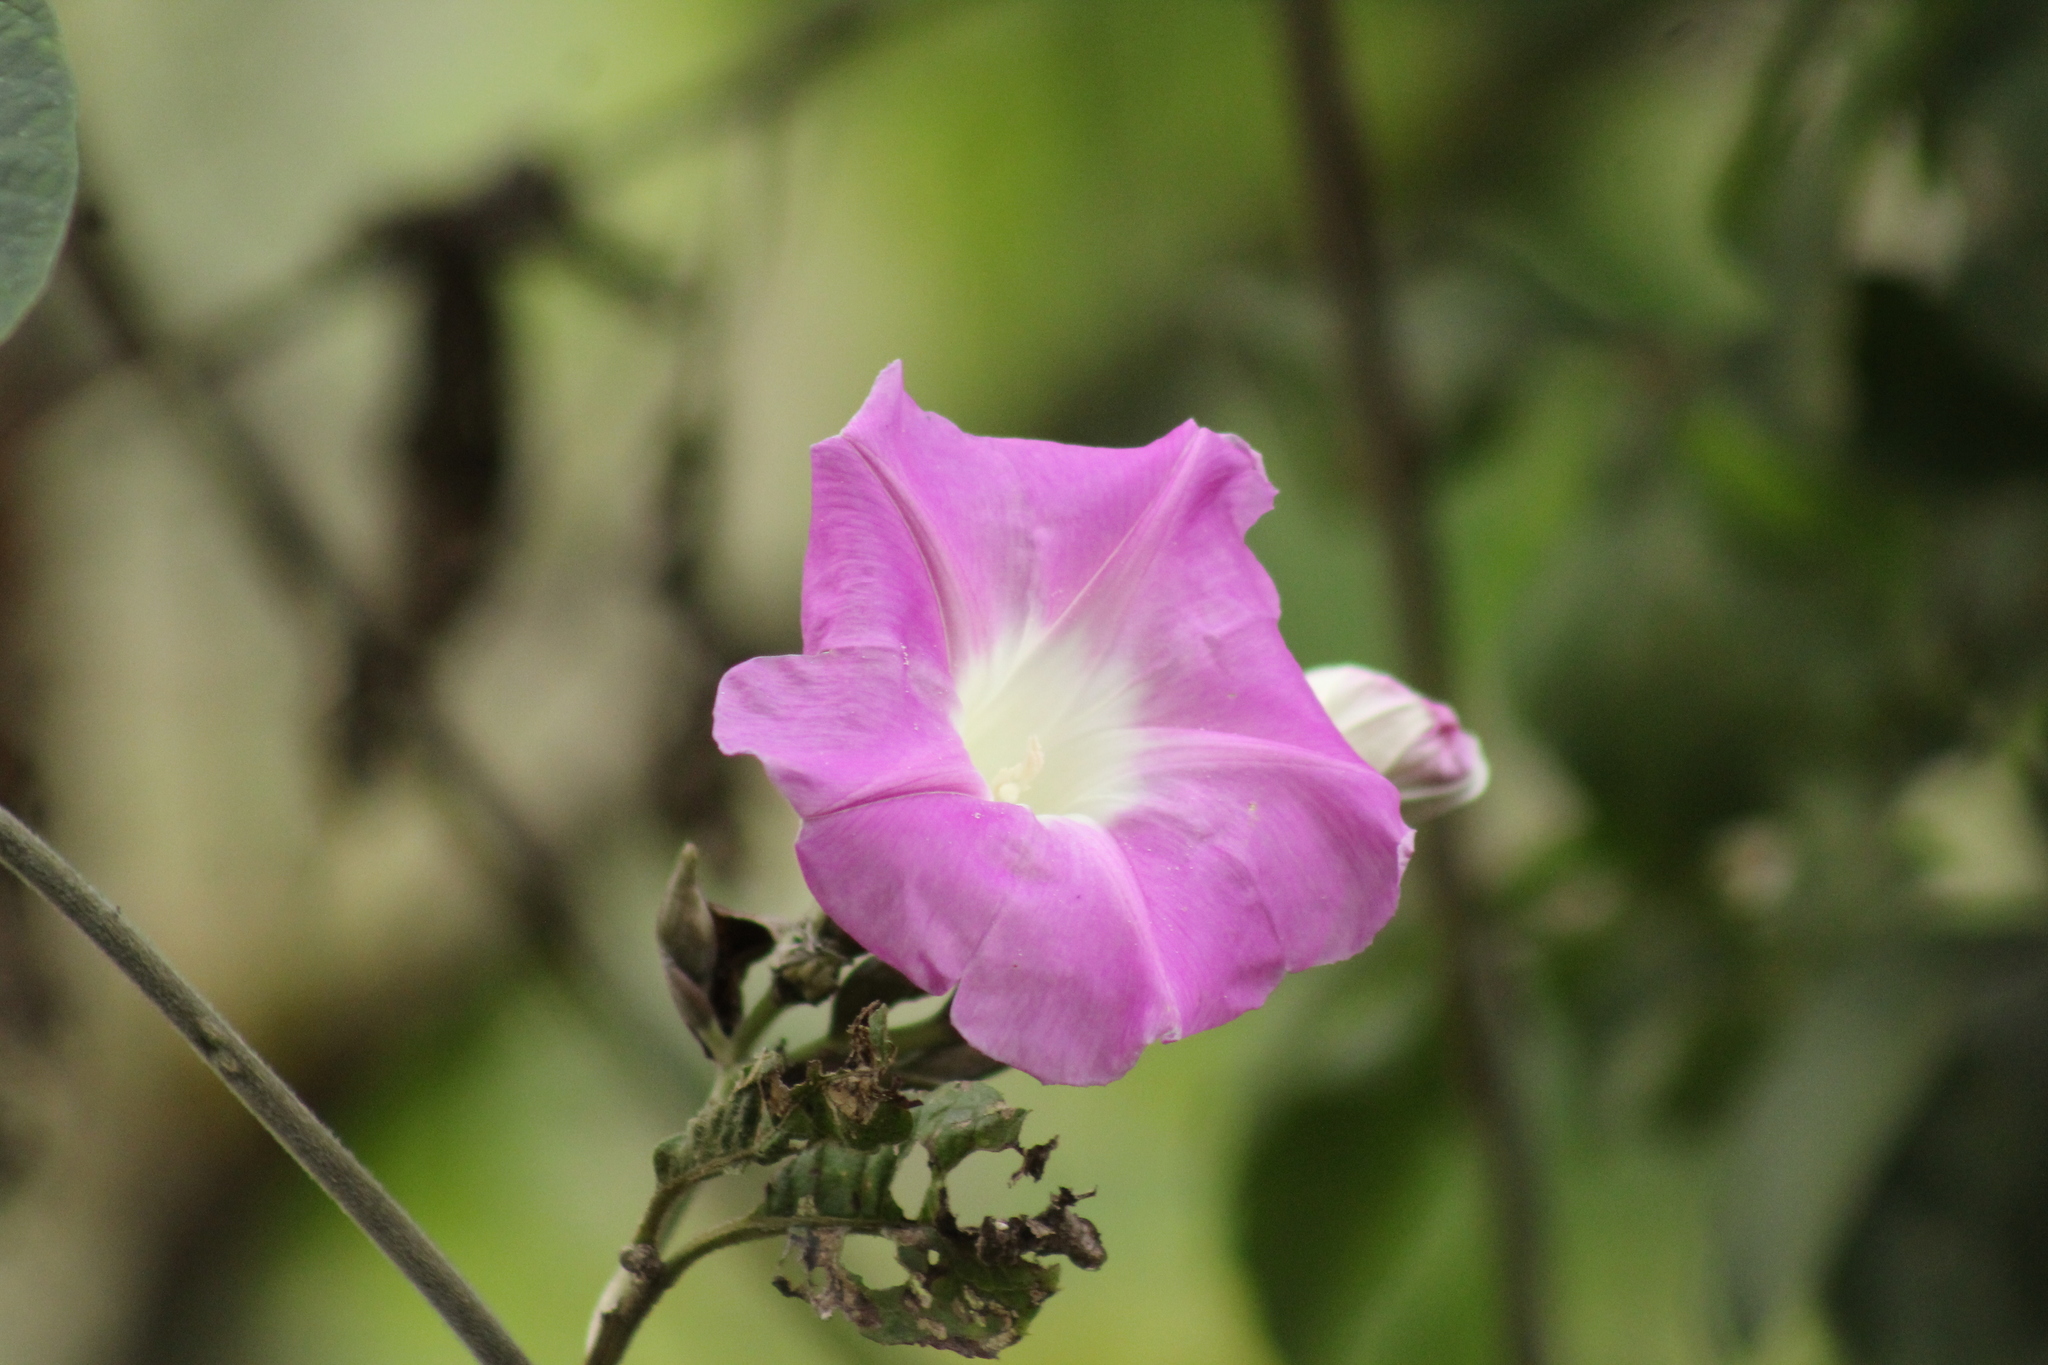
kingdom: Plantae
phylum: Tracheophyta
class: Magnoliopsida
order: Solanales
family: Convolvulaceae
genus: Ipomoea
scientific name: Ipomoea mairetii
